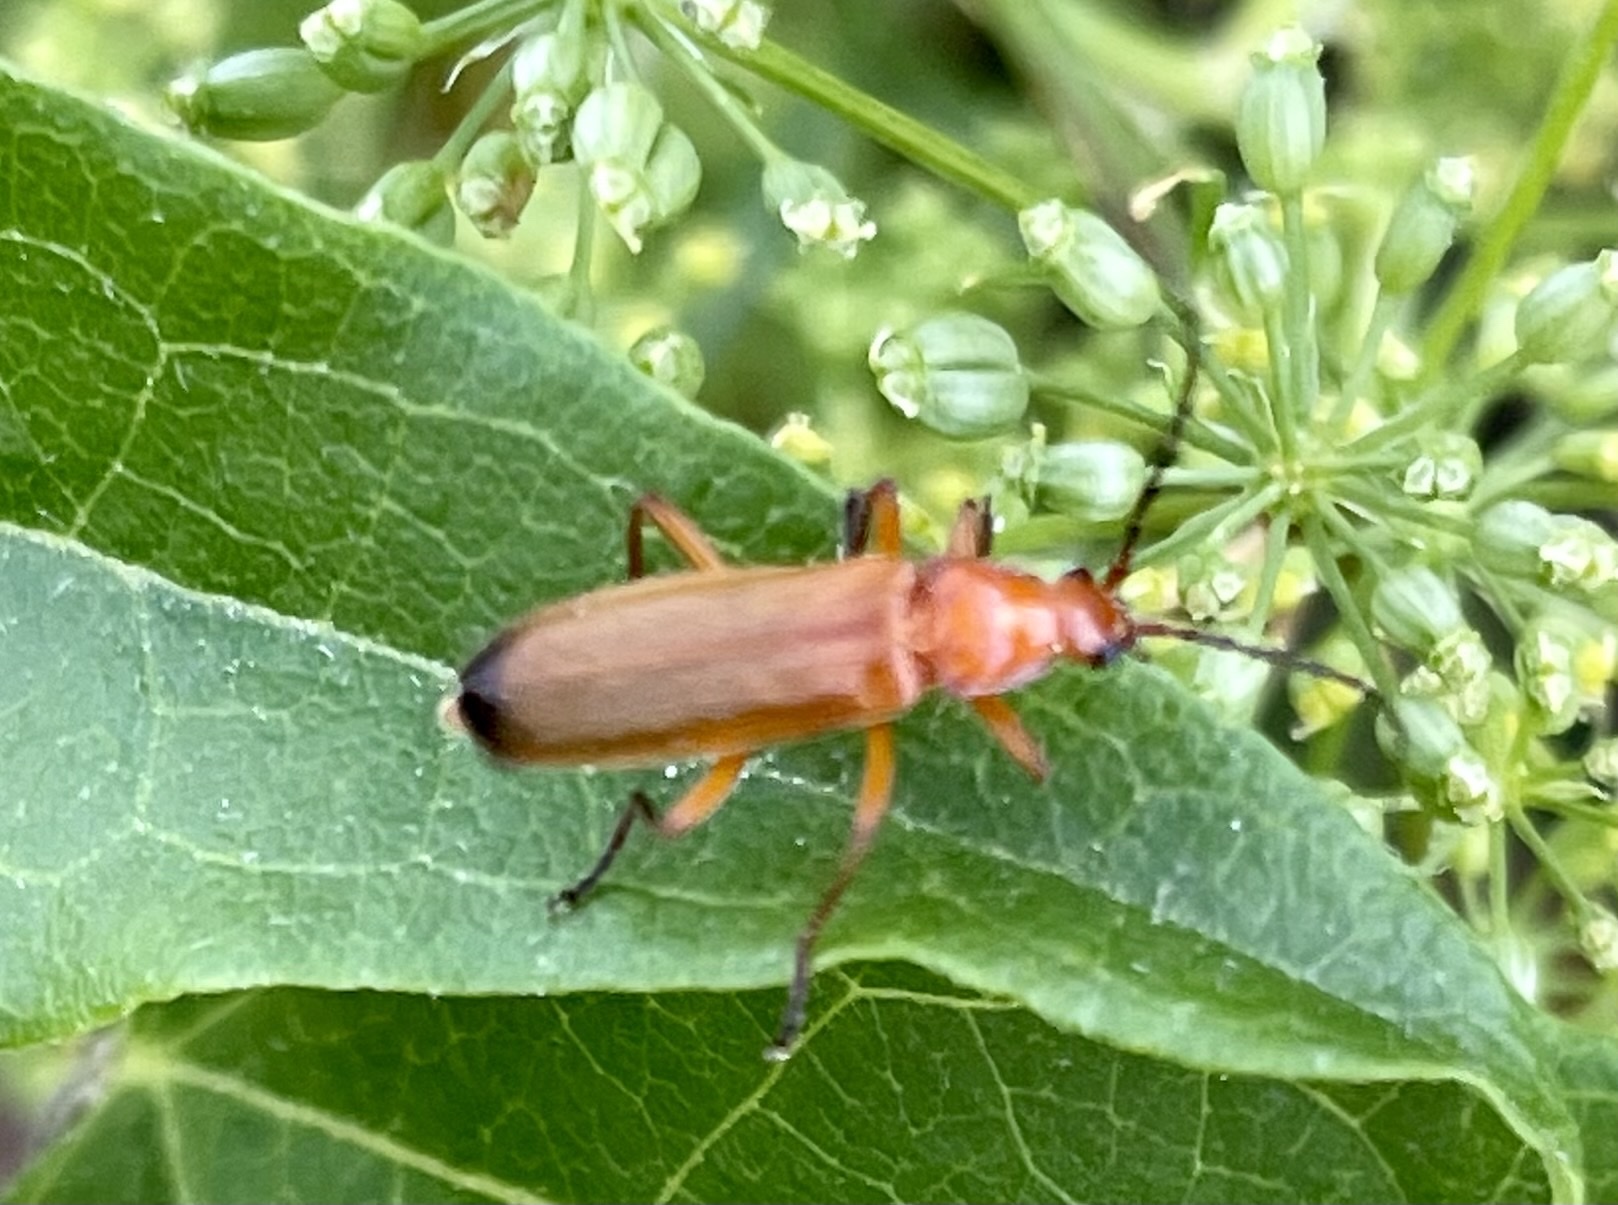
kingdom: Animalia
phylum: Arthropoda
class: Insecta
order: Coleoptera
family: Cantharidae
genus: Rhagonycha
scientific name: Rhagonycha fulva
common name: Common red soldier beetle
